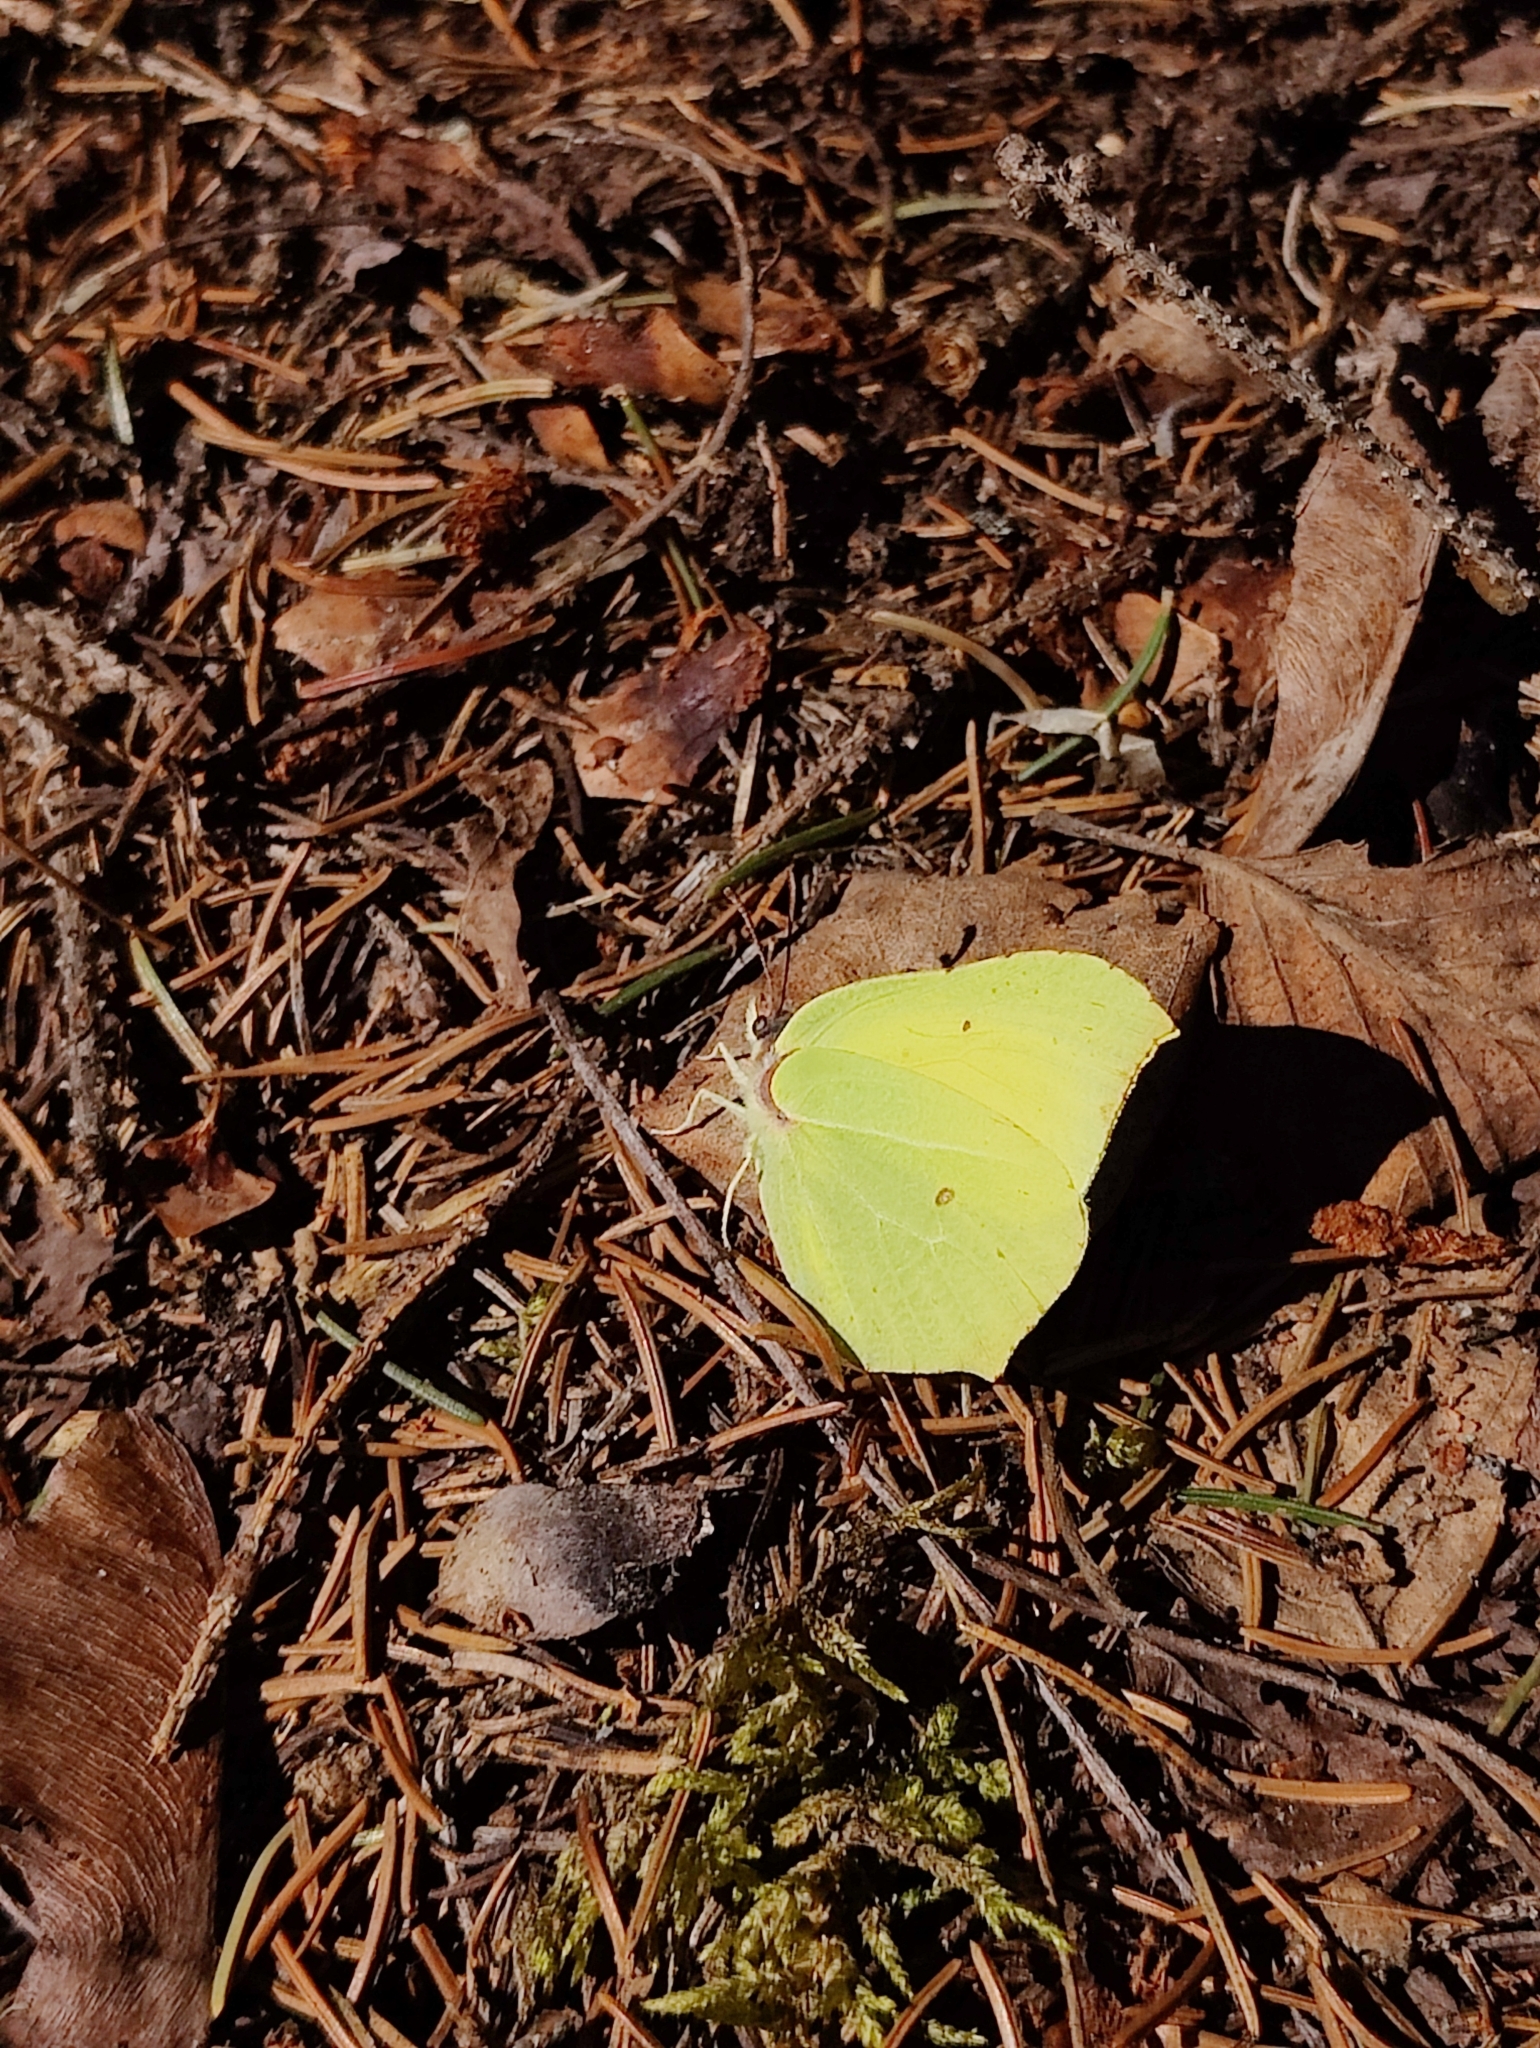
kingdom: Animalia
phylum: Arthropoda
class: Insecta
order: Lepidoptera
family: Pieridae
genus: Gonepteryx
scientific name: Gonepteryx rhamni
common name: Brimstone
